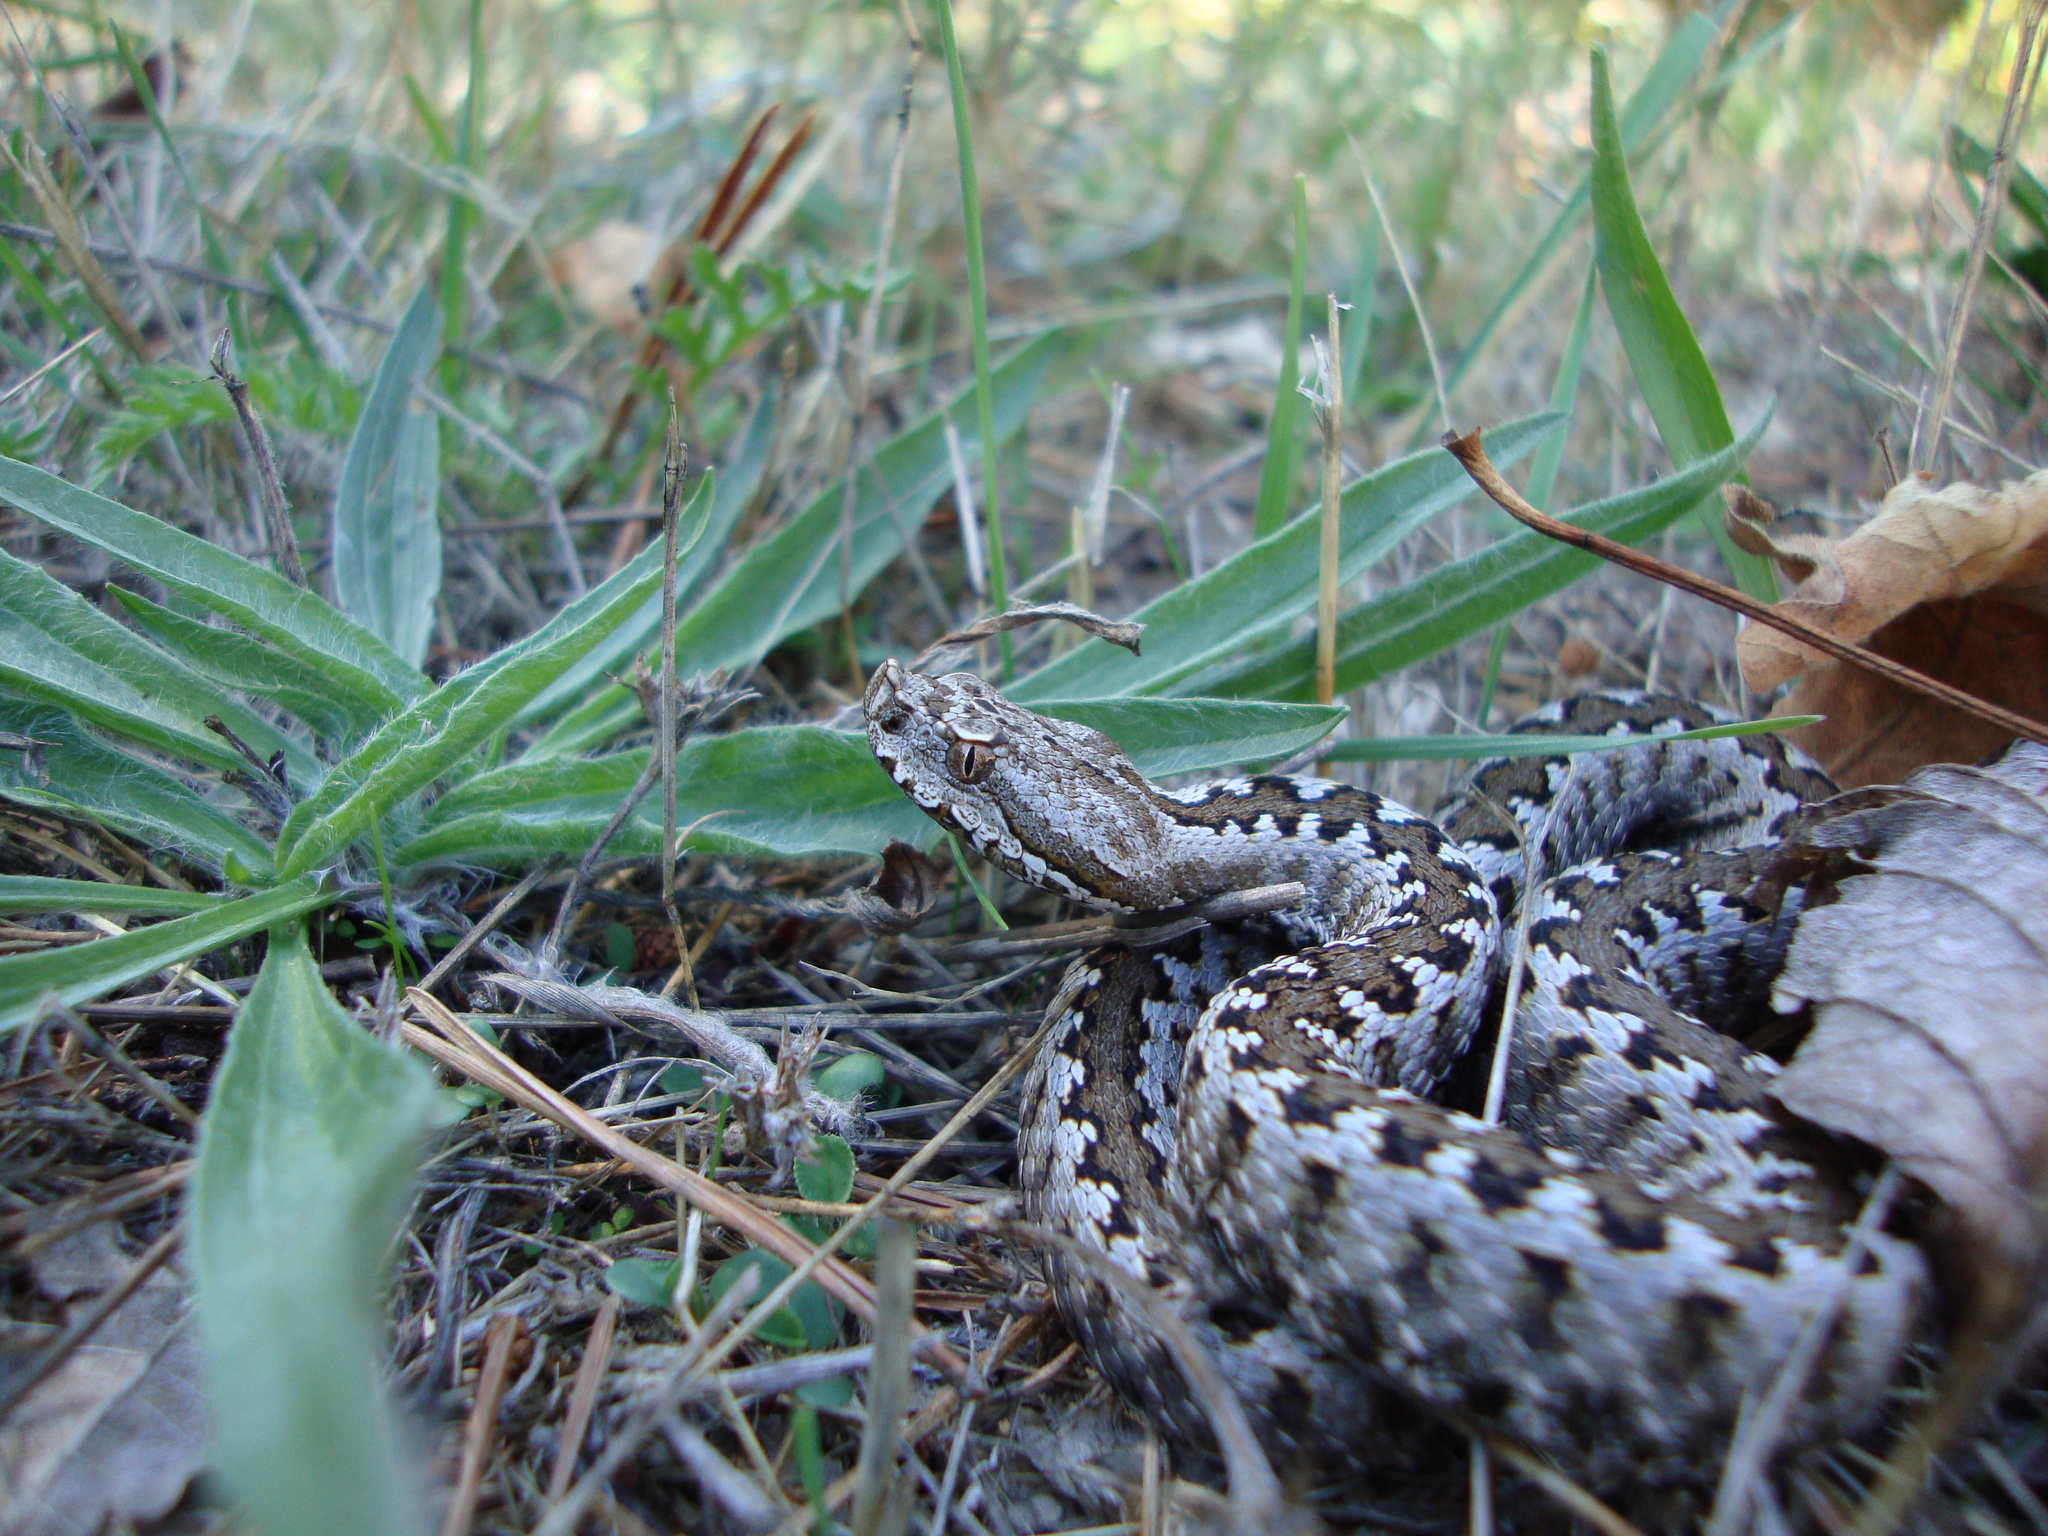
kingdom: Animalia
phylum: Chordata
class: Squamata
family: Viperidae
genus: Vipera
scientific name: Vipera latastei
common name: Lataste's viper
